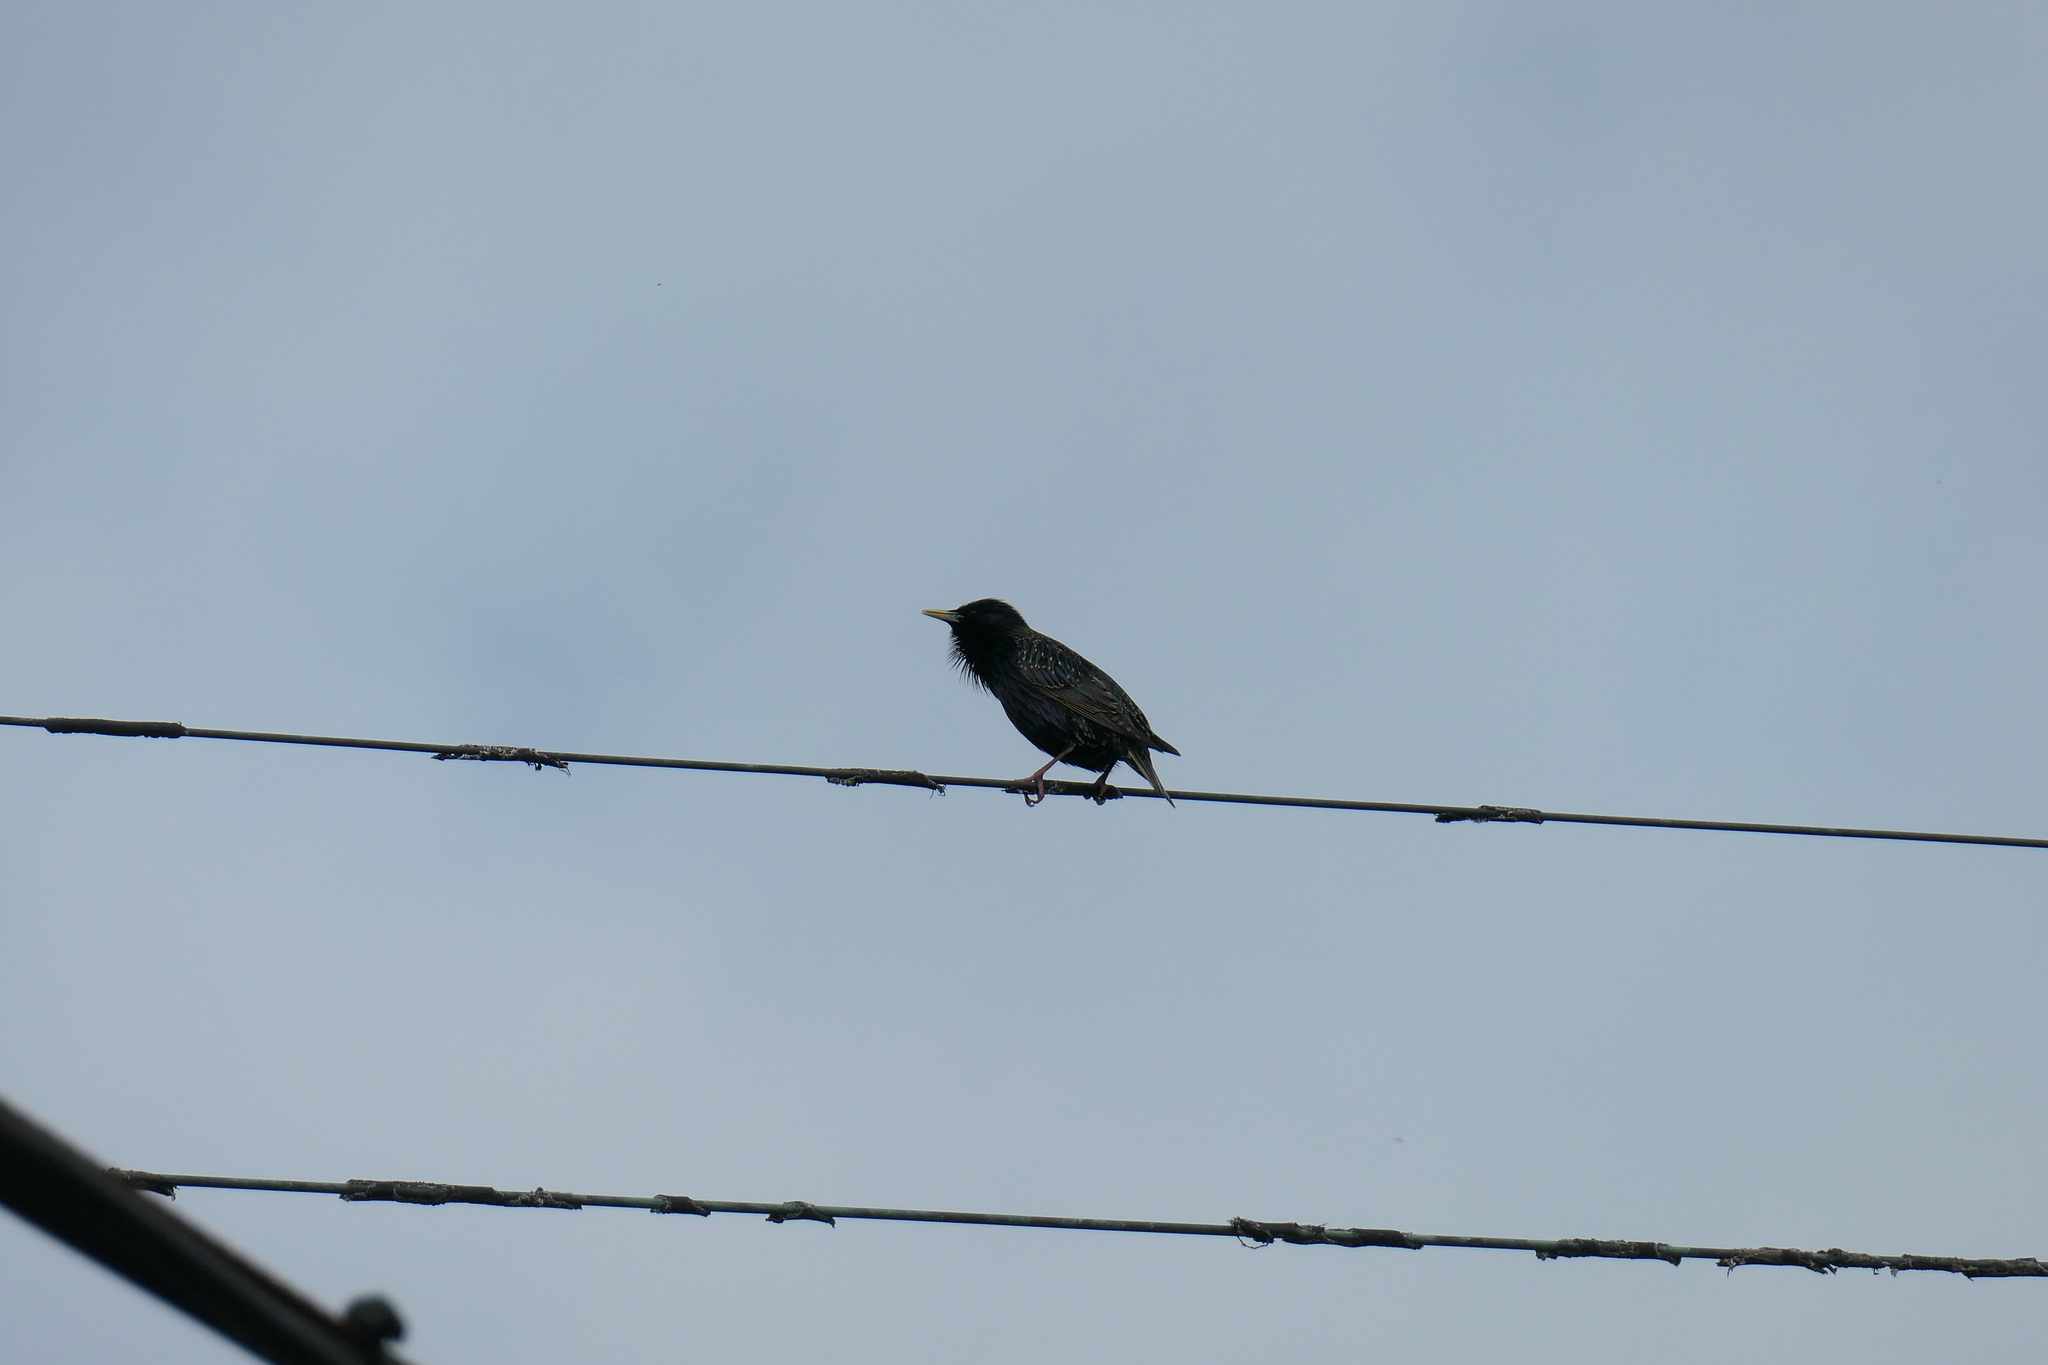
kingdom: Animalia
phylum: Chordata
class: Aves
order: Passeriformes
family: Sturnidae
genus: Sturnus
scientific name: Sturnus vulgaris
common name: Common starling
